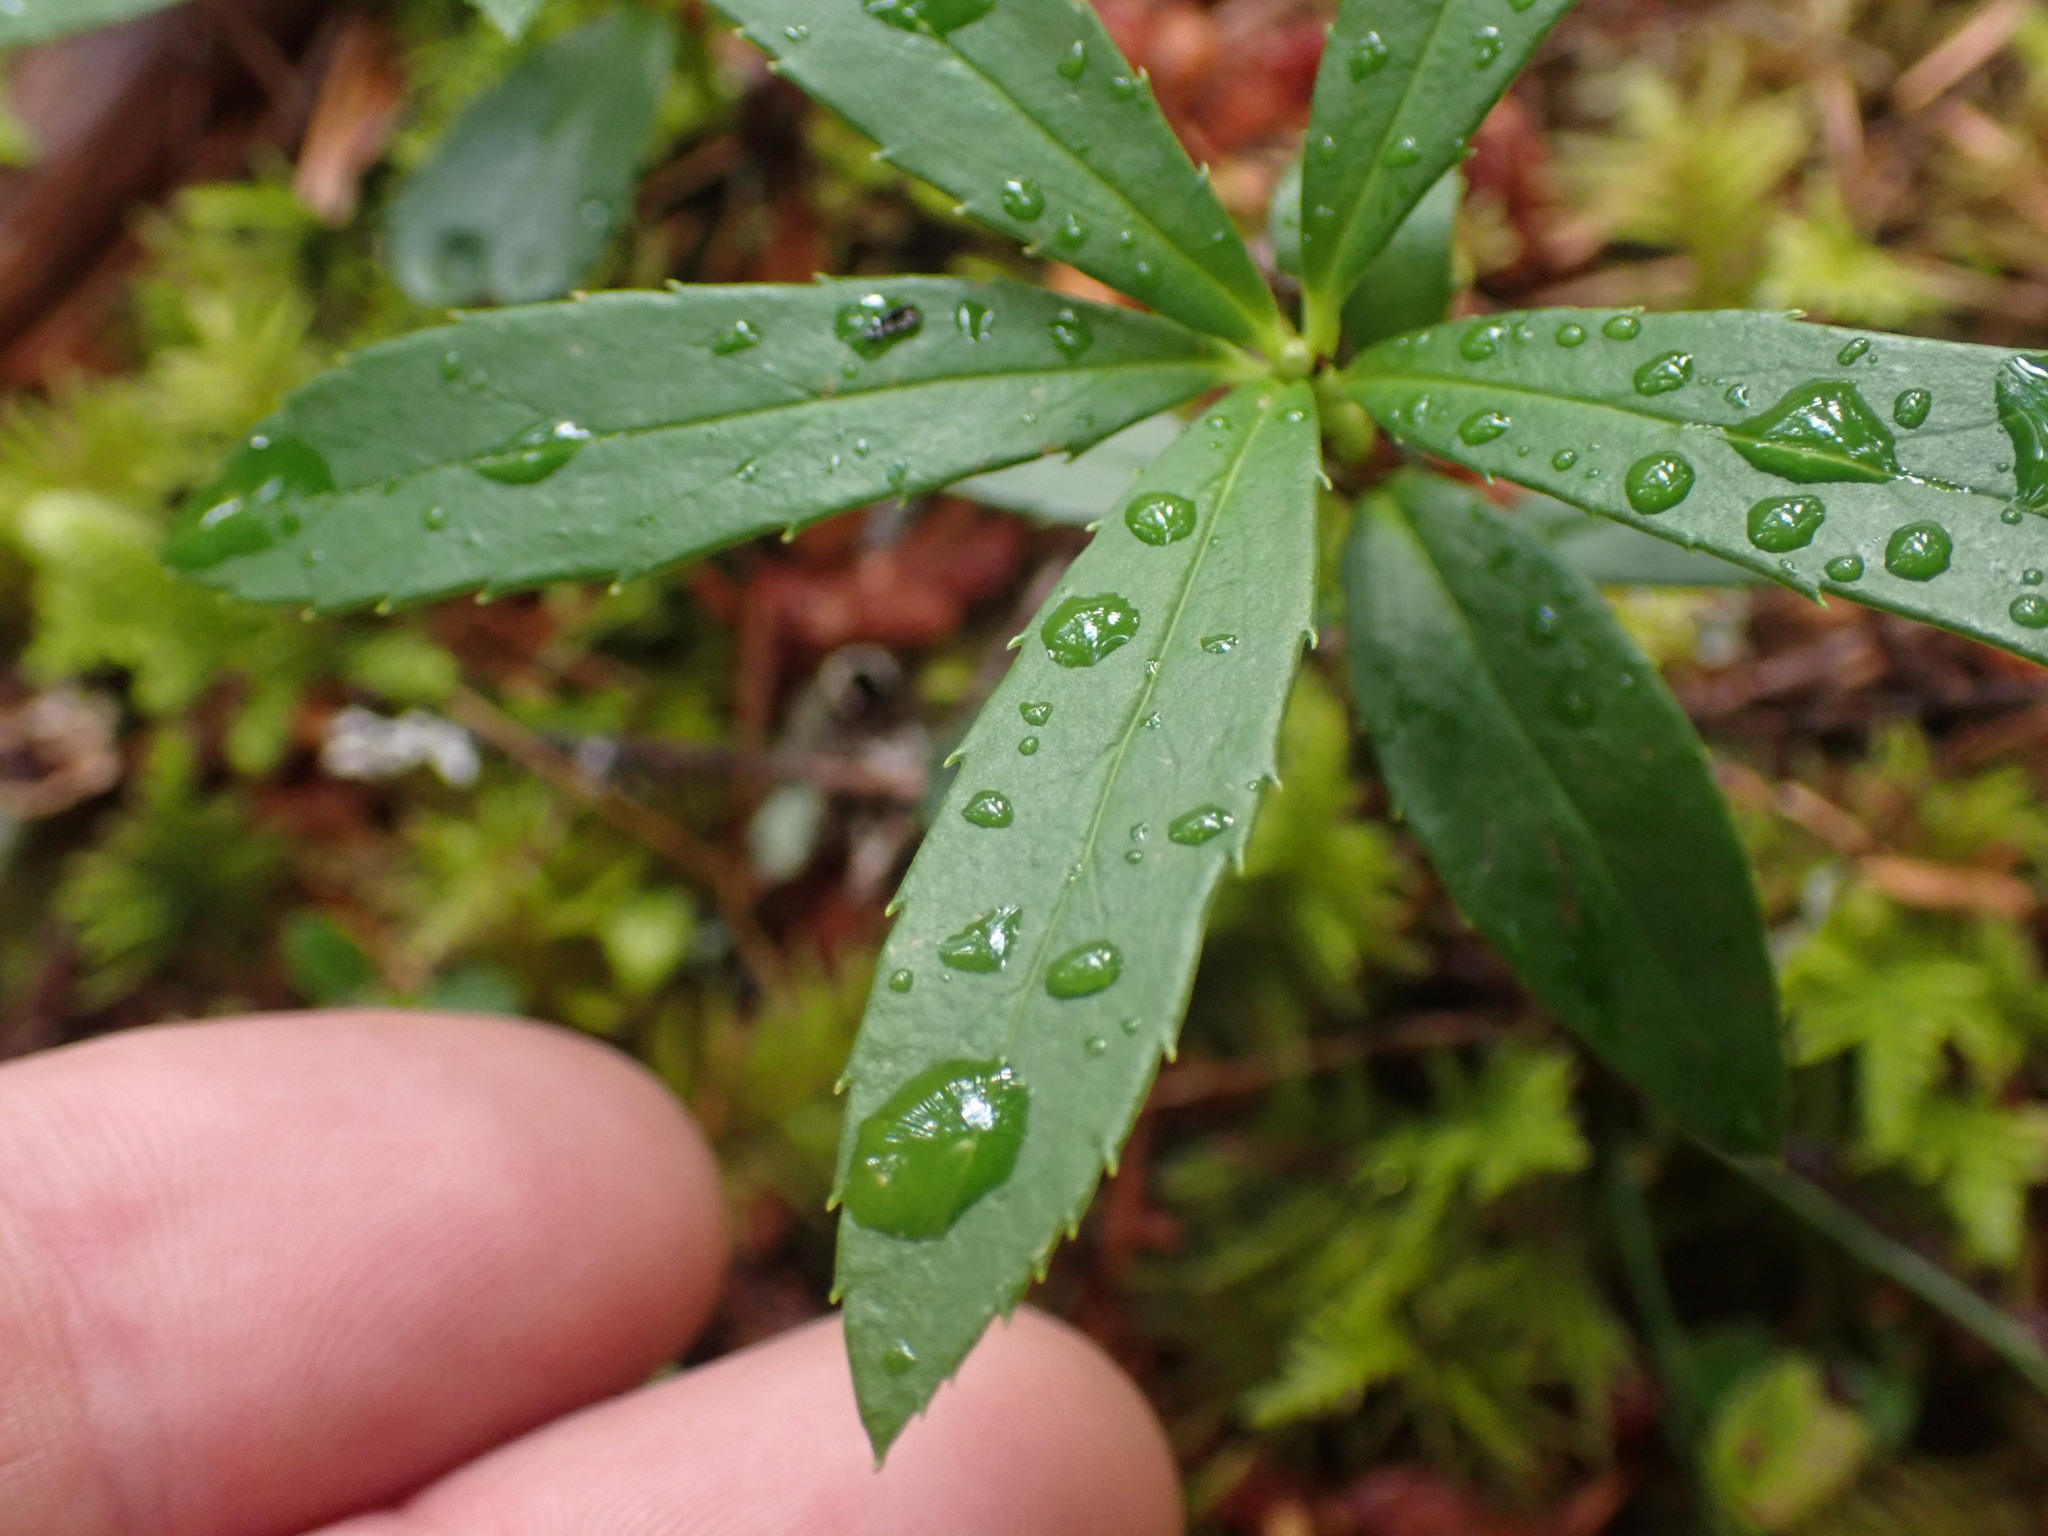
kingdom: Plantae
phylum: Tracheophyta
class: Magnoliopsida
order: Ericales
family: Ericaceae
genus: Chimaphila
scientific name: Chimaphila umbellata
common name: Pipsissewa
